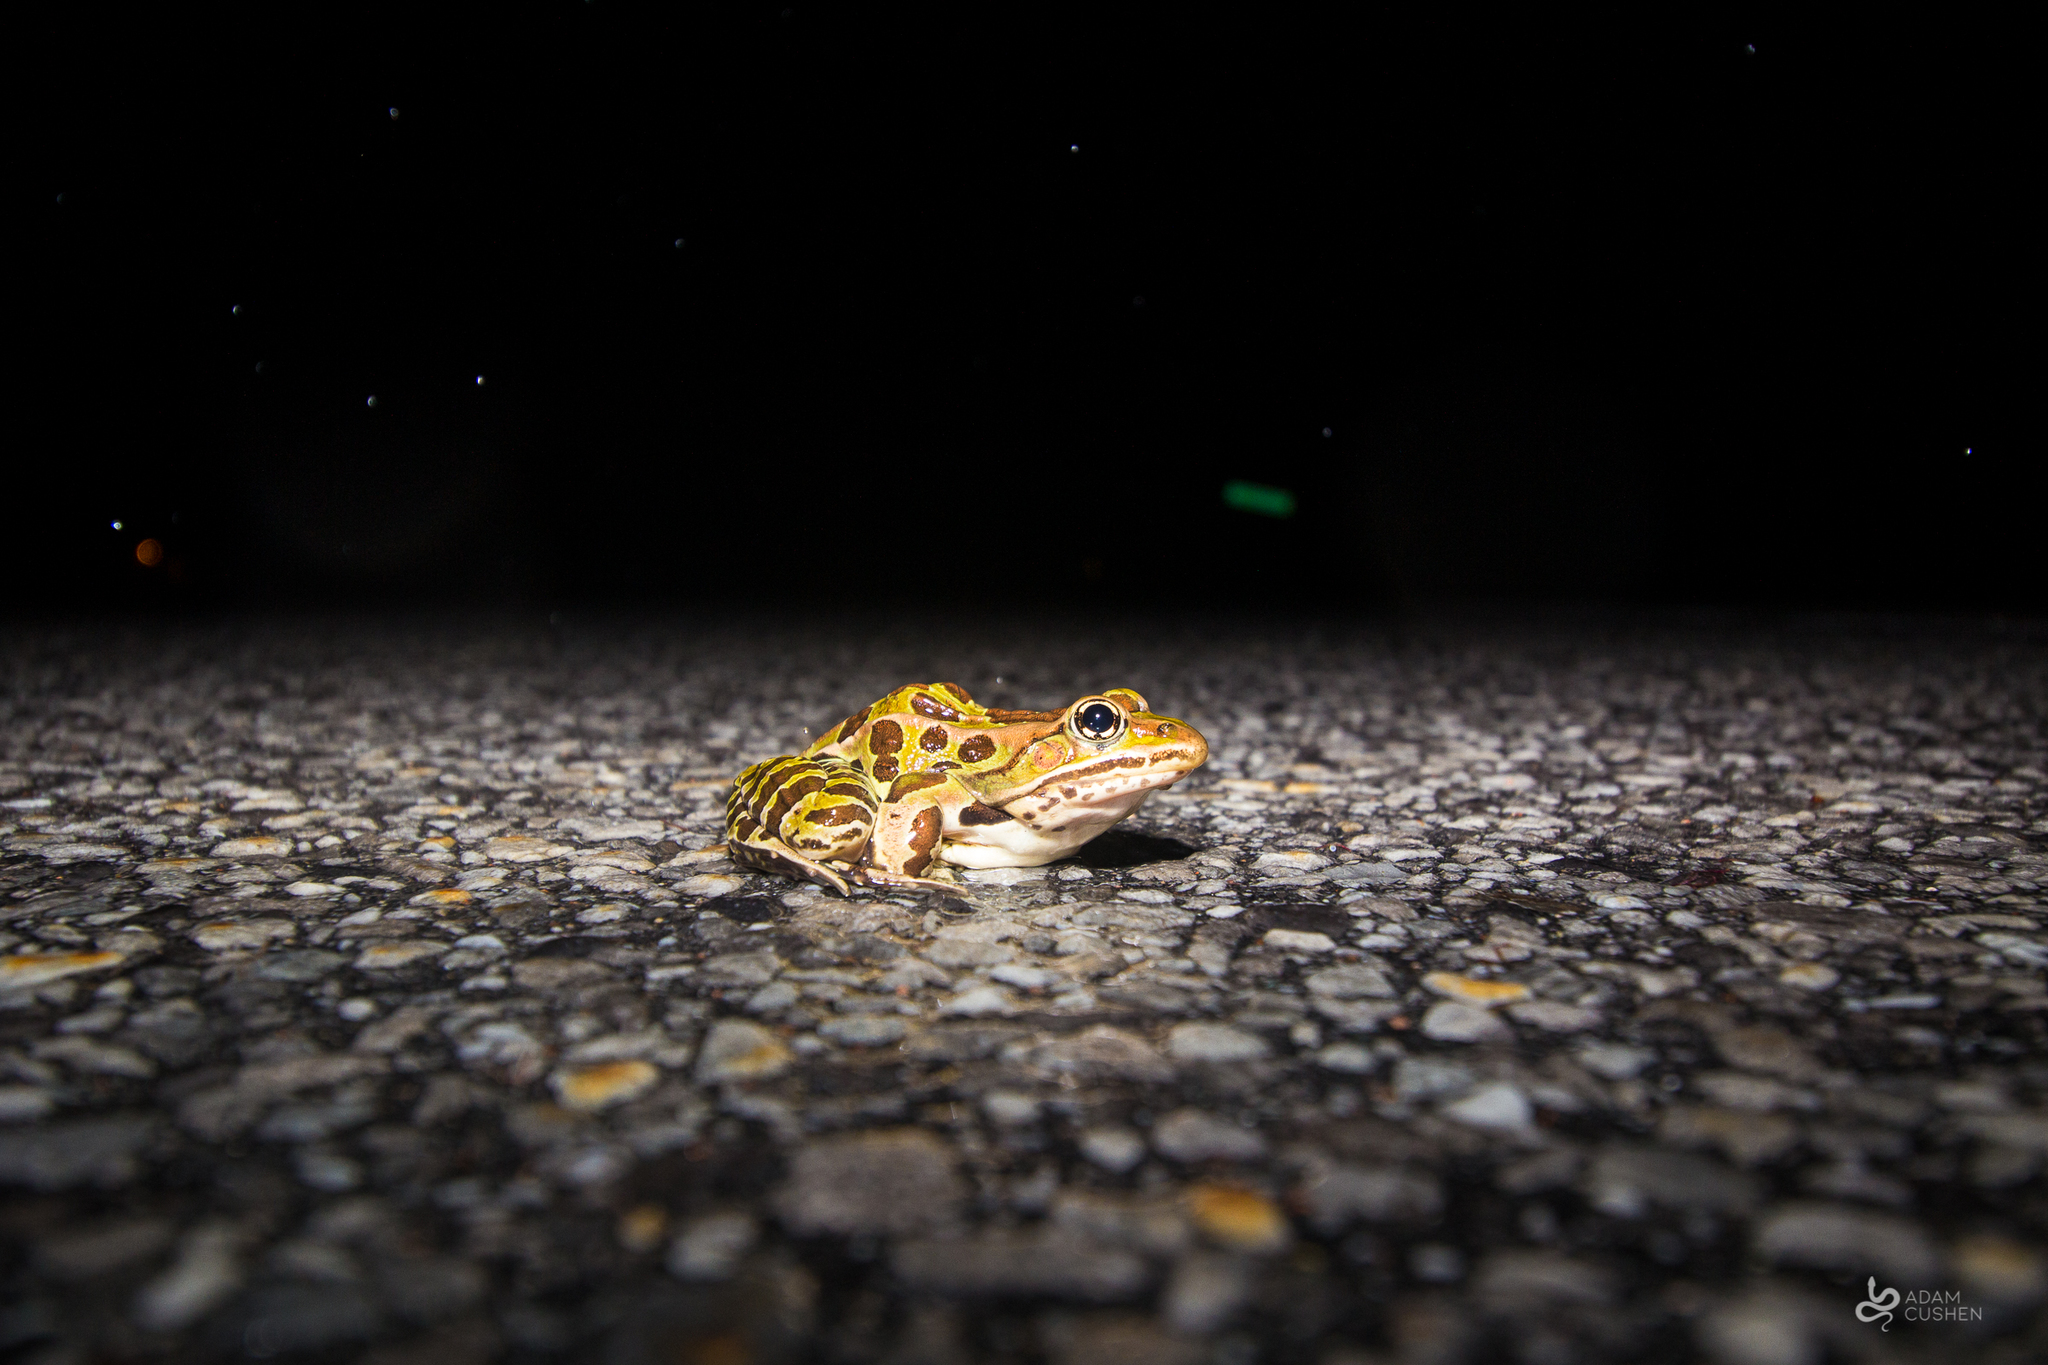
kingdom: Animalia
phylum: Chordata
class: Amphibia
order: Anura
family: Ranidae
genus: Lithobates
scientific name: Lithobates pipiens
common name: Northern leopard frog
